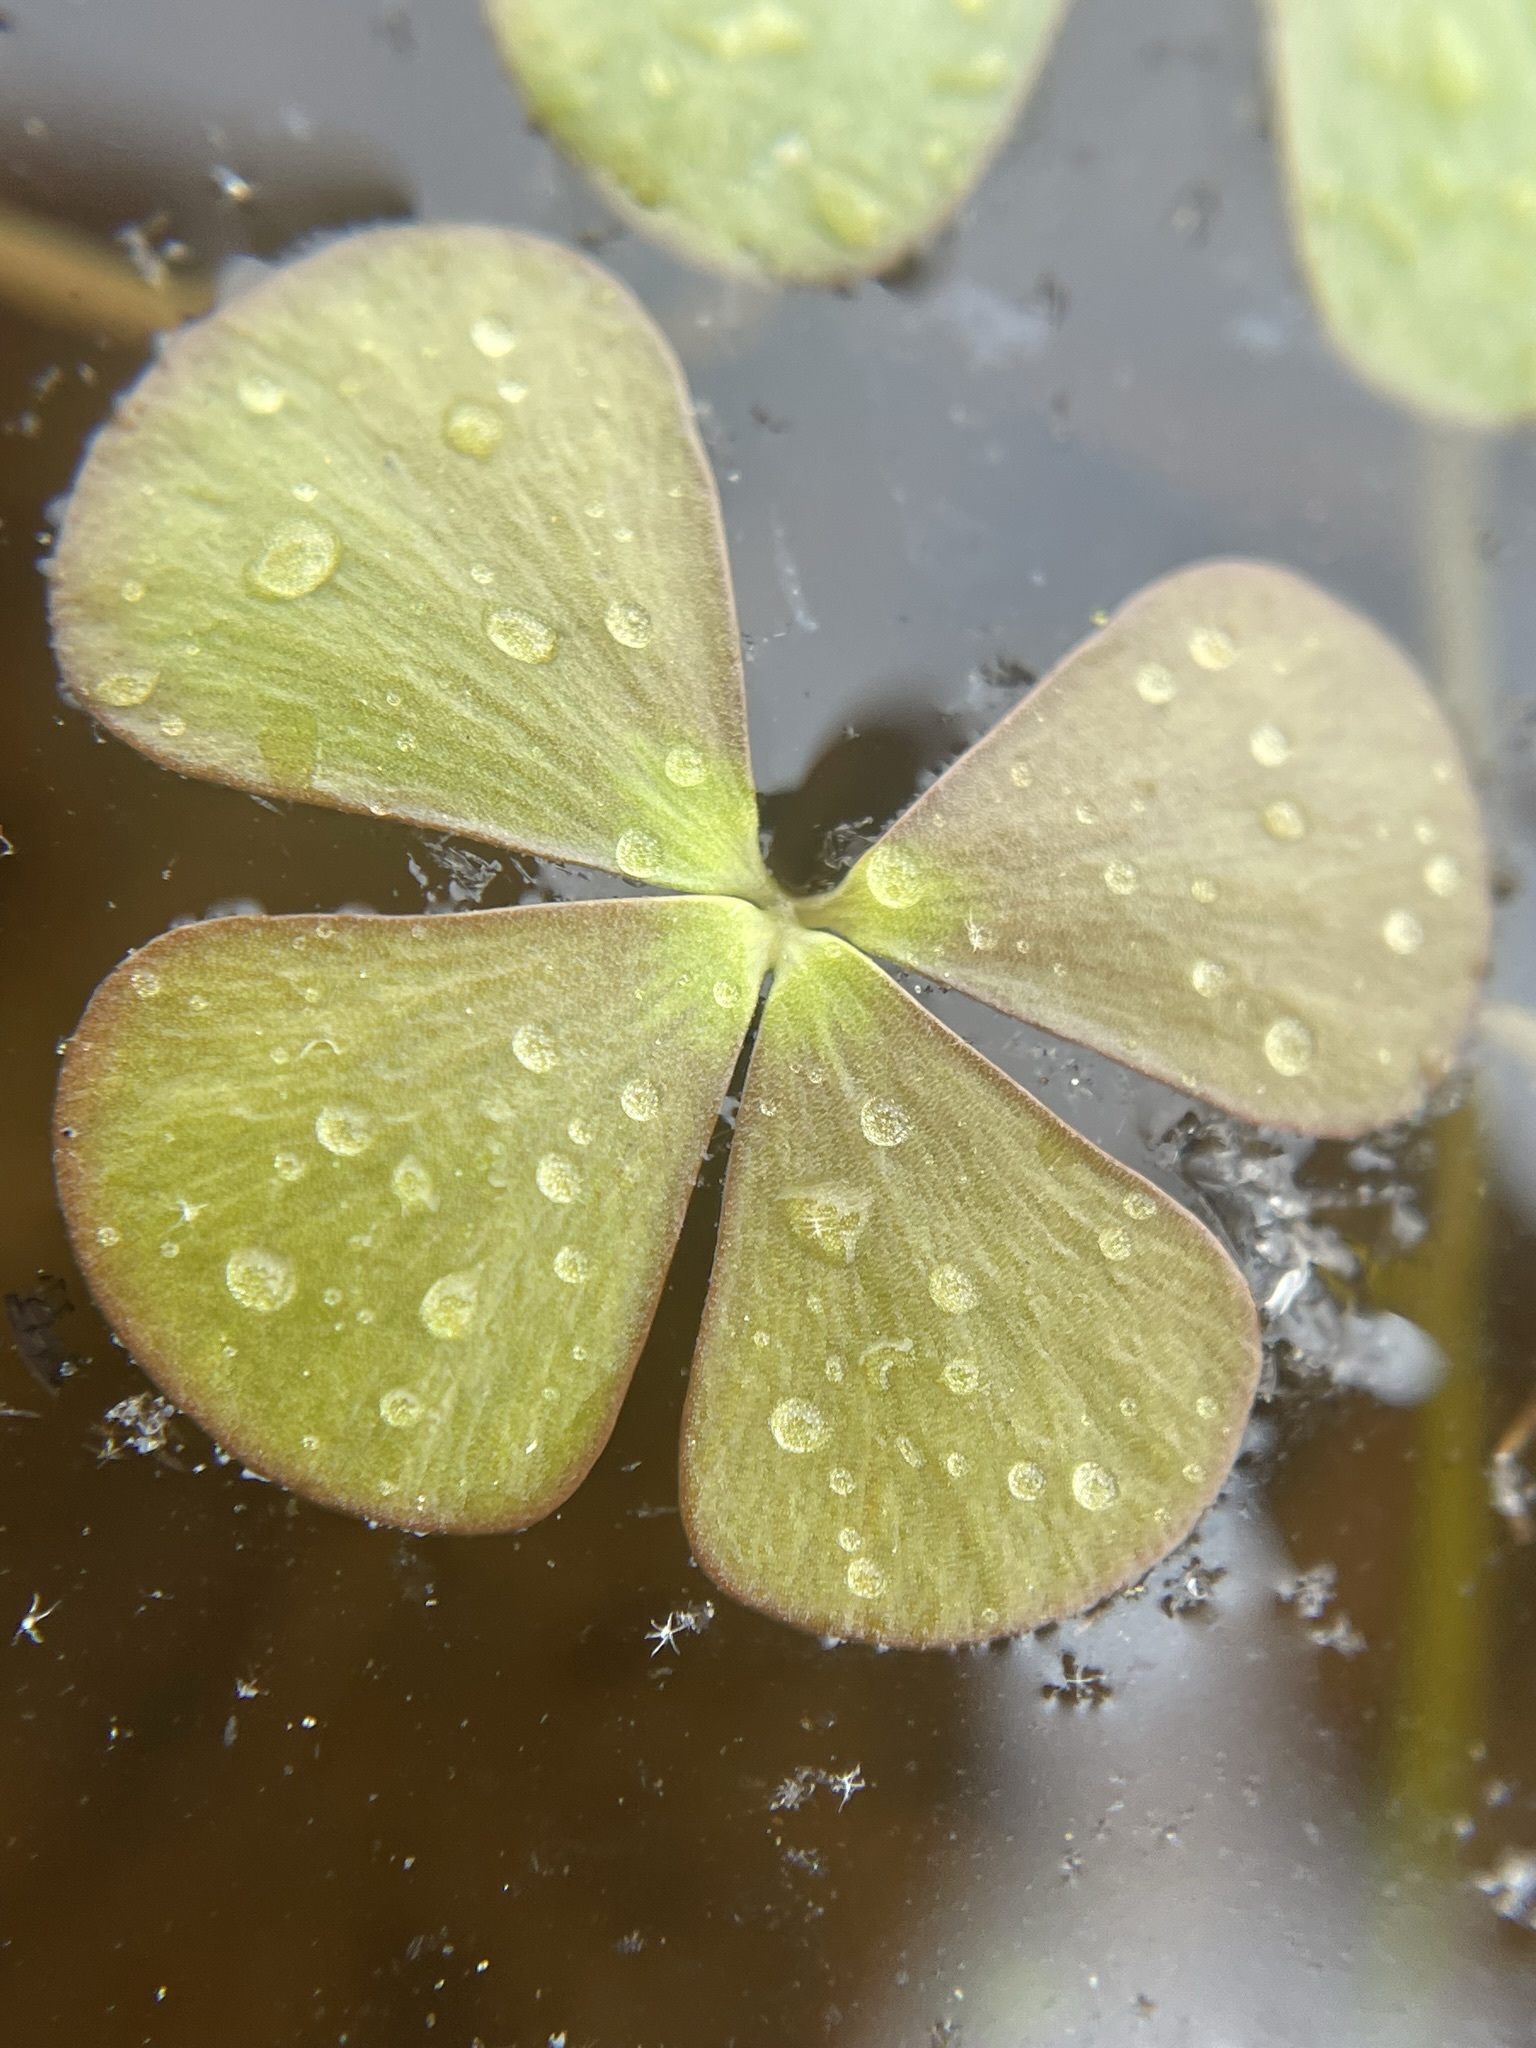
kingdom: Plantae
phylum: Tracheophyta
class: Polypodiopsida
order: Salviniales
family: Marsileaceae
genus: Marsilea
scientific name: Marsilea vestita
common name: Hooked-pepperwort
